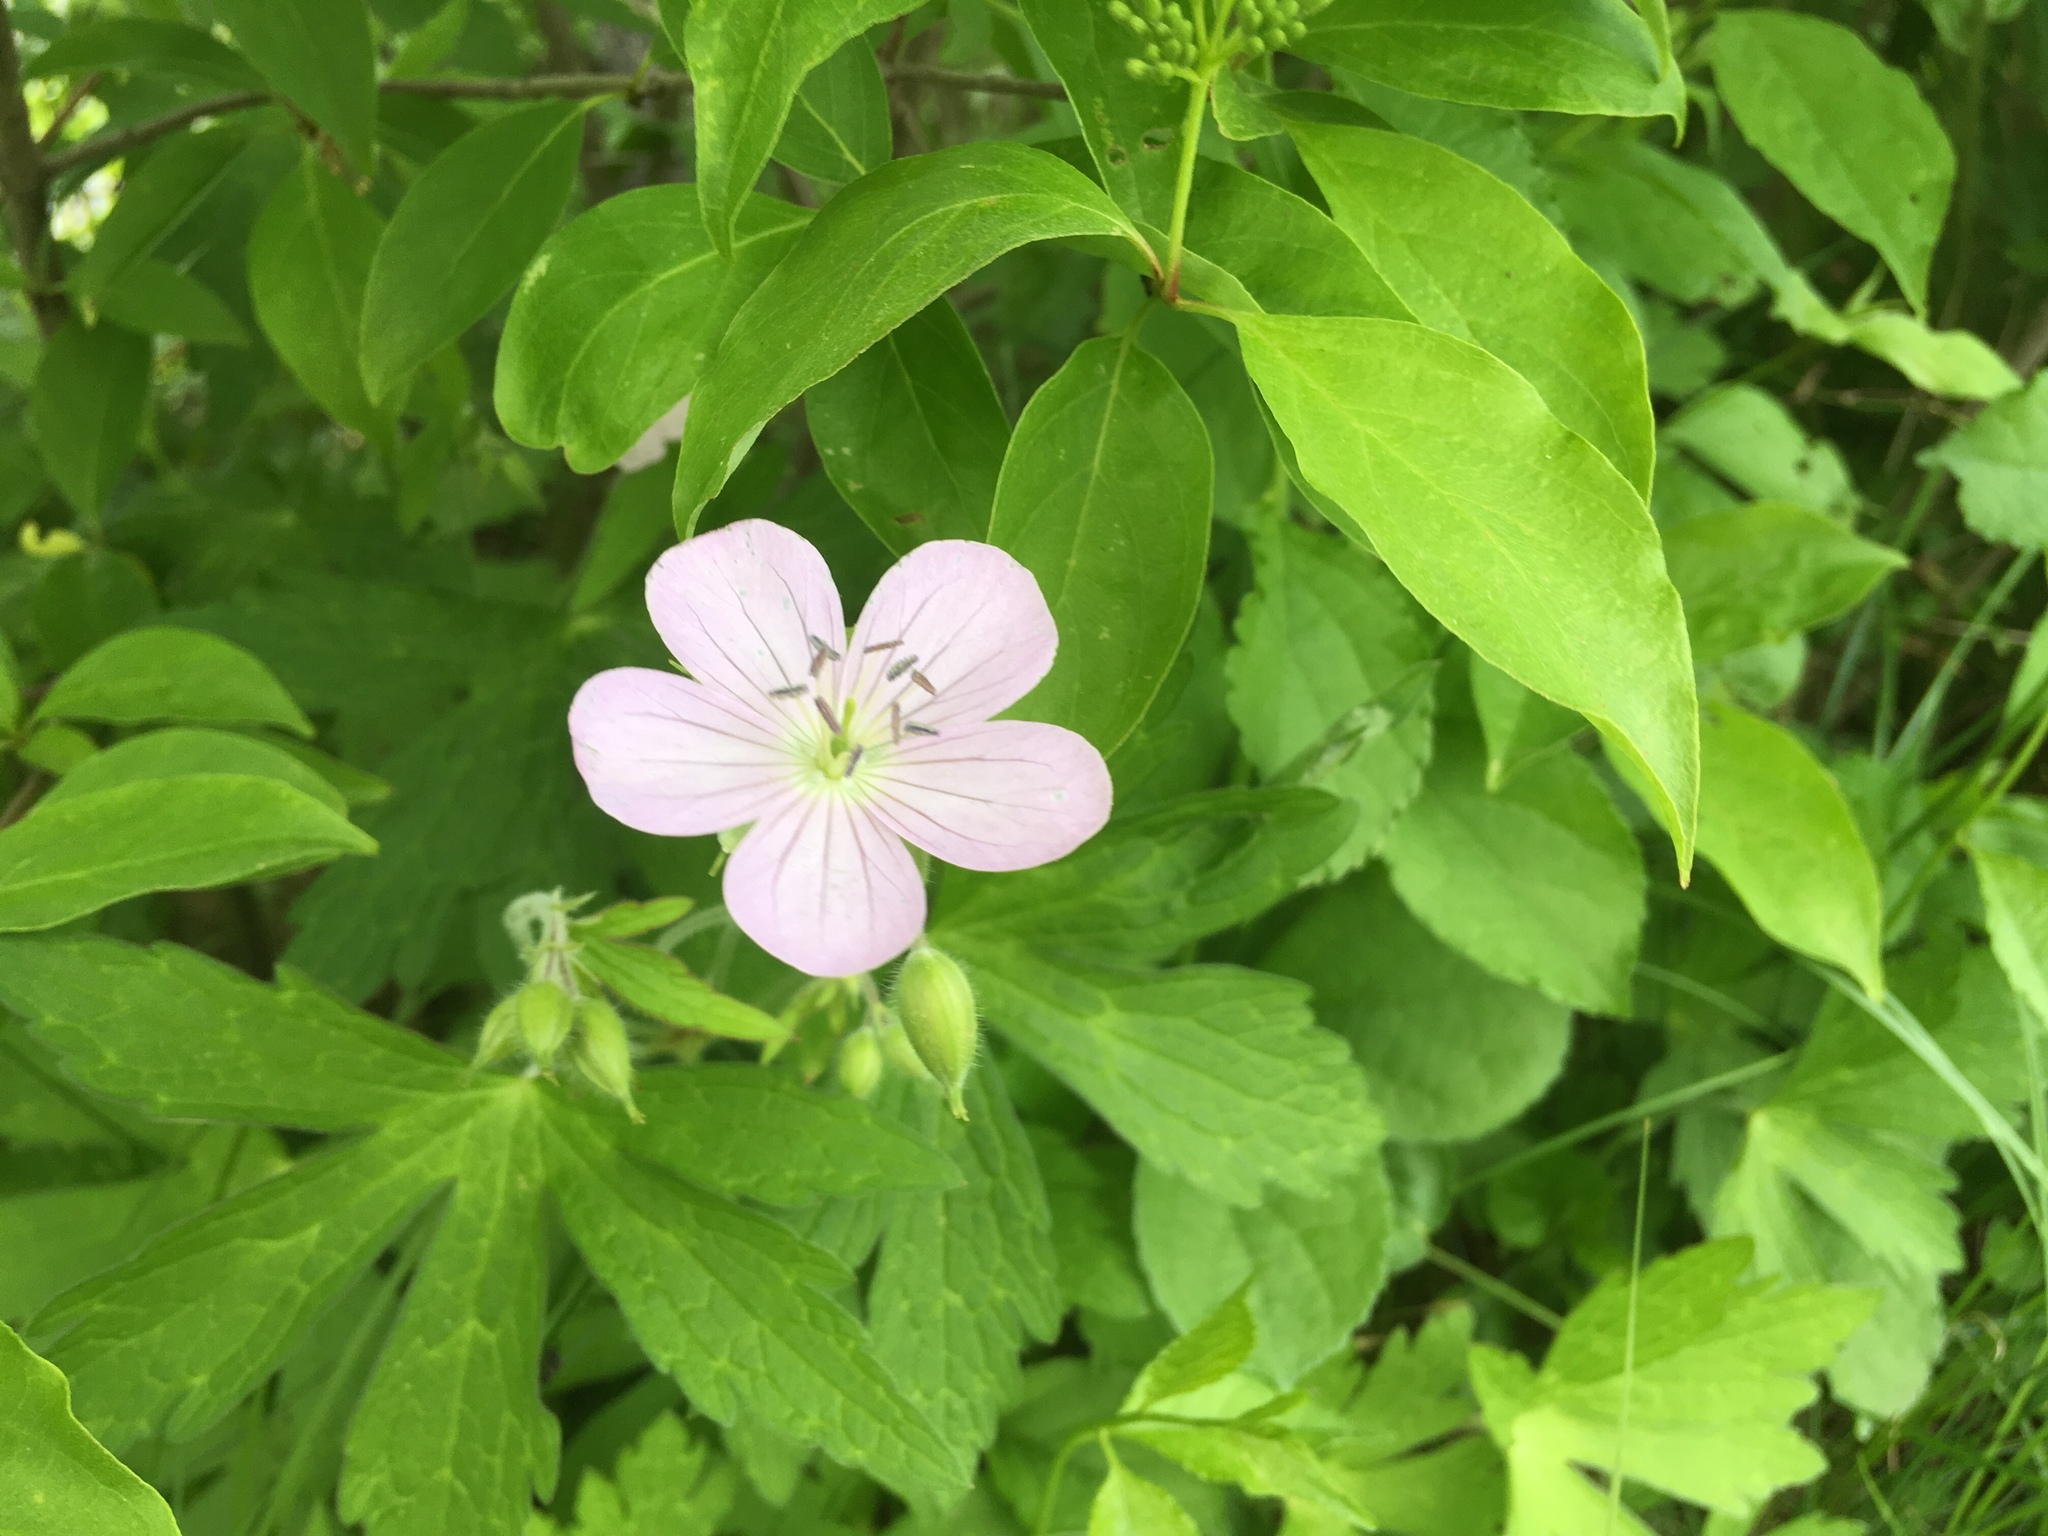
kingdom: Plantae
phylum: Tracheophyta
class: Magnoliopsida
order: Geraniales
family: Geraniaceae
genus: Geranium
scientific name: Geranium maculatum
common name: Spotted geranium
